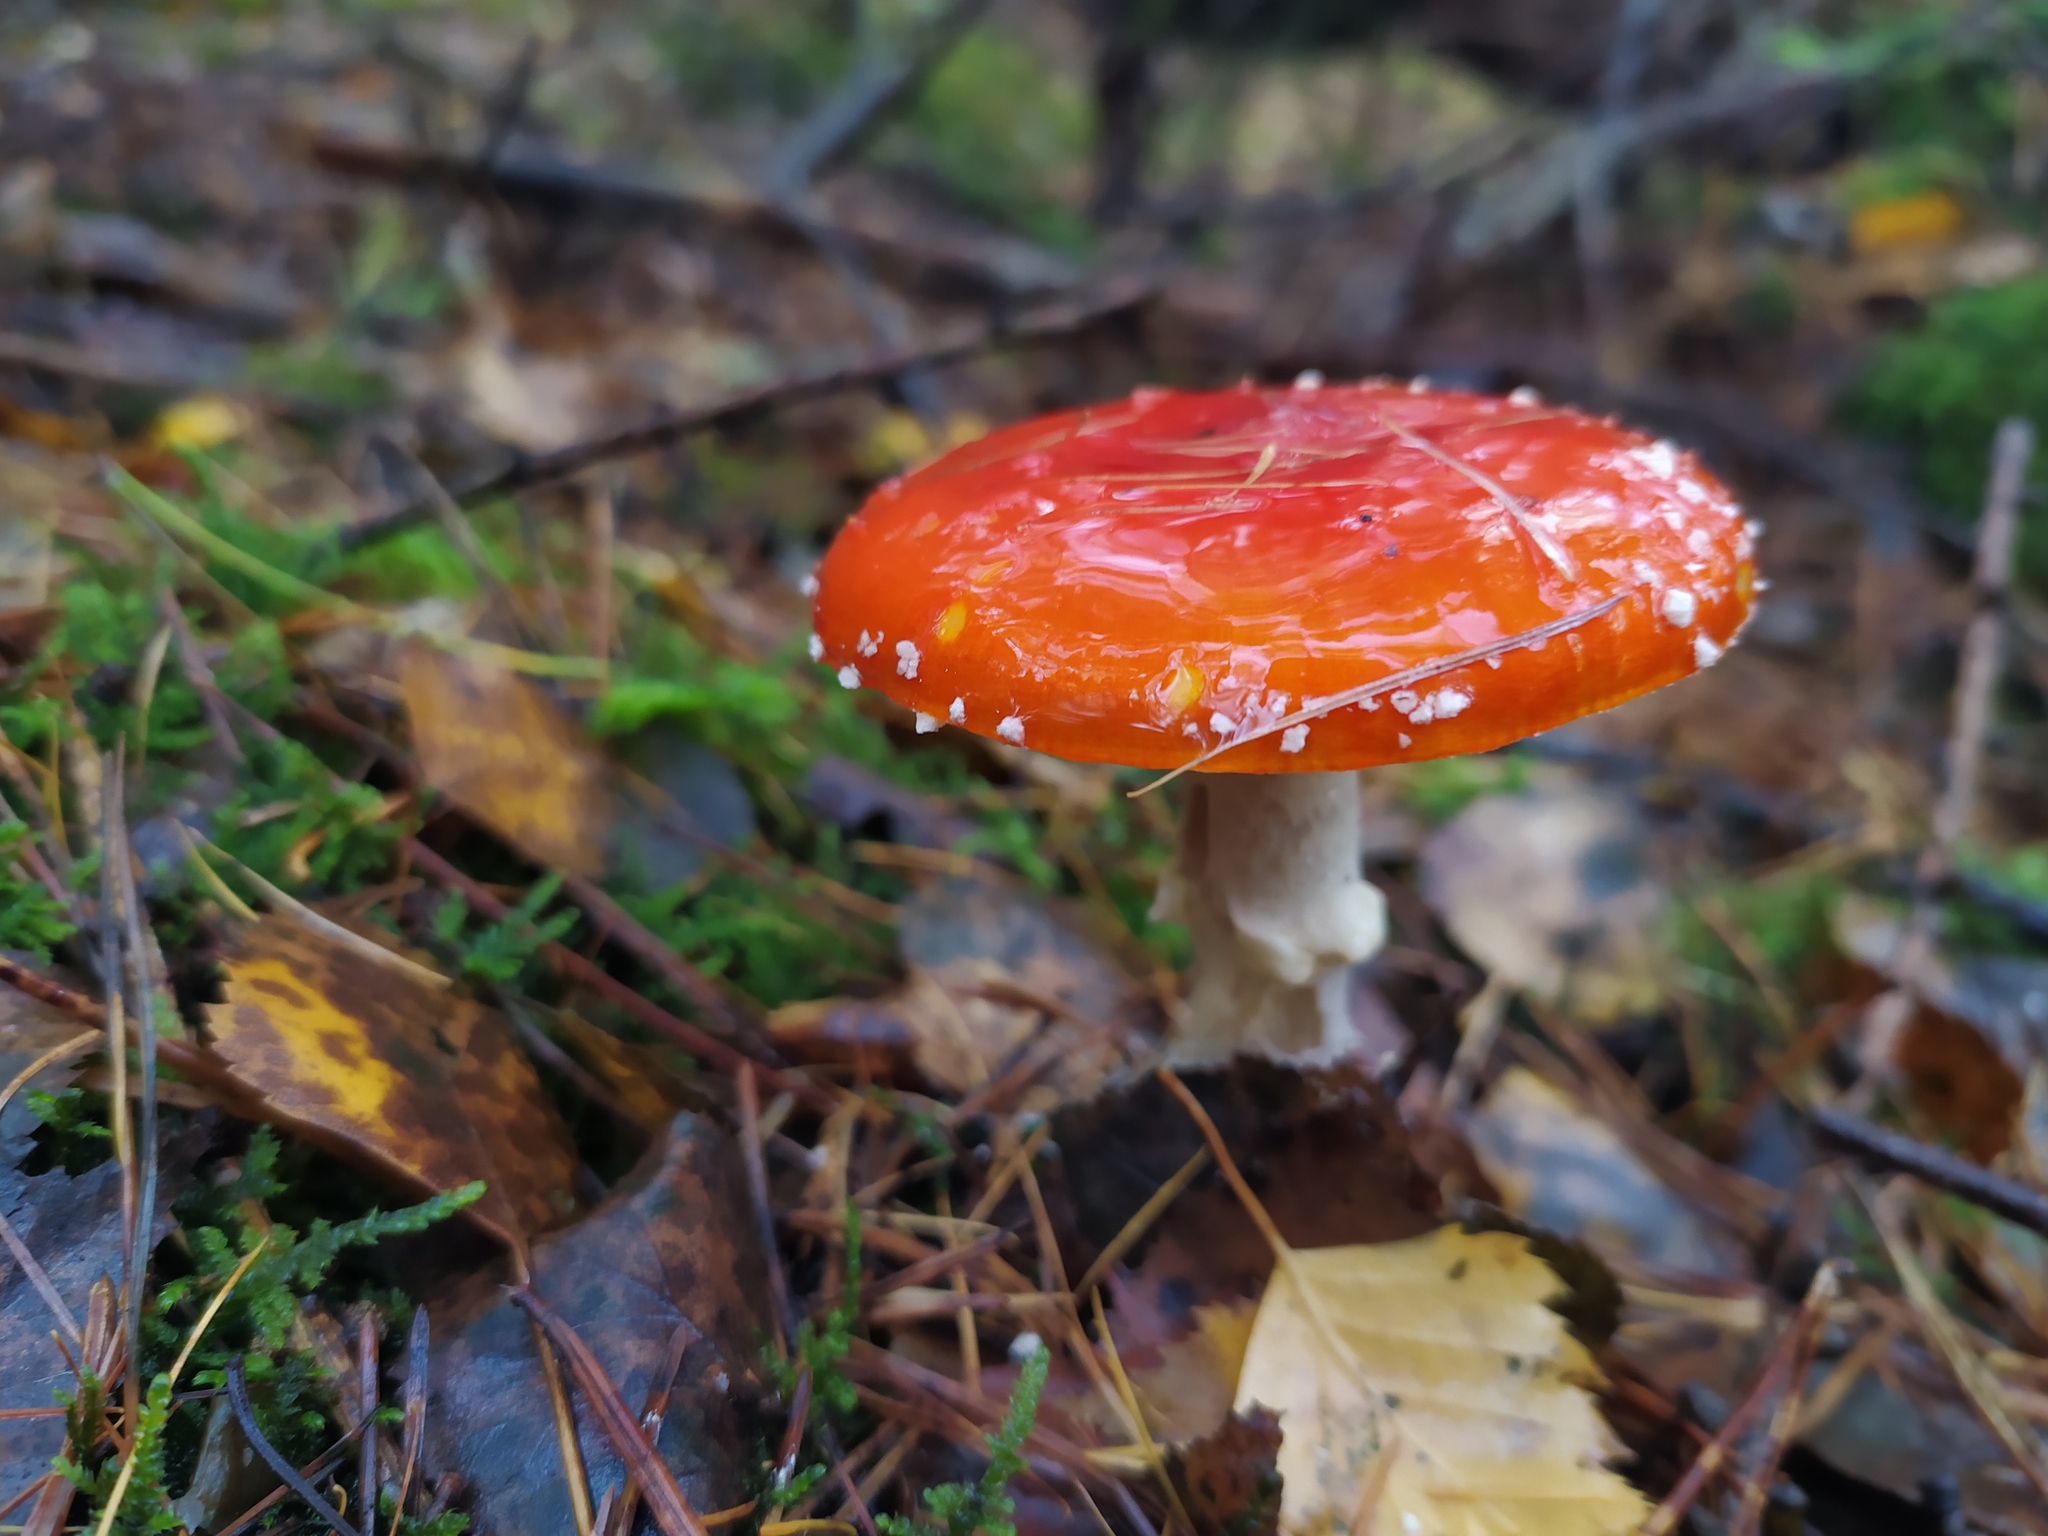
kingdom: Fungi
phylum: Basidiomycota
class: Agaricomycetes
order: Agaricales
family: Amanitaceae
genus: Amanita
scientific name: Amanita muscaria
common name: Fly agaric
